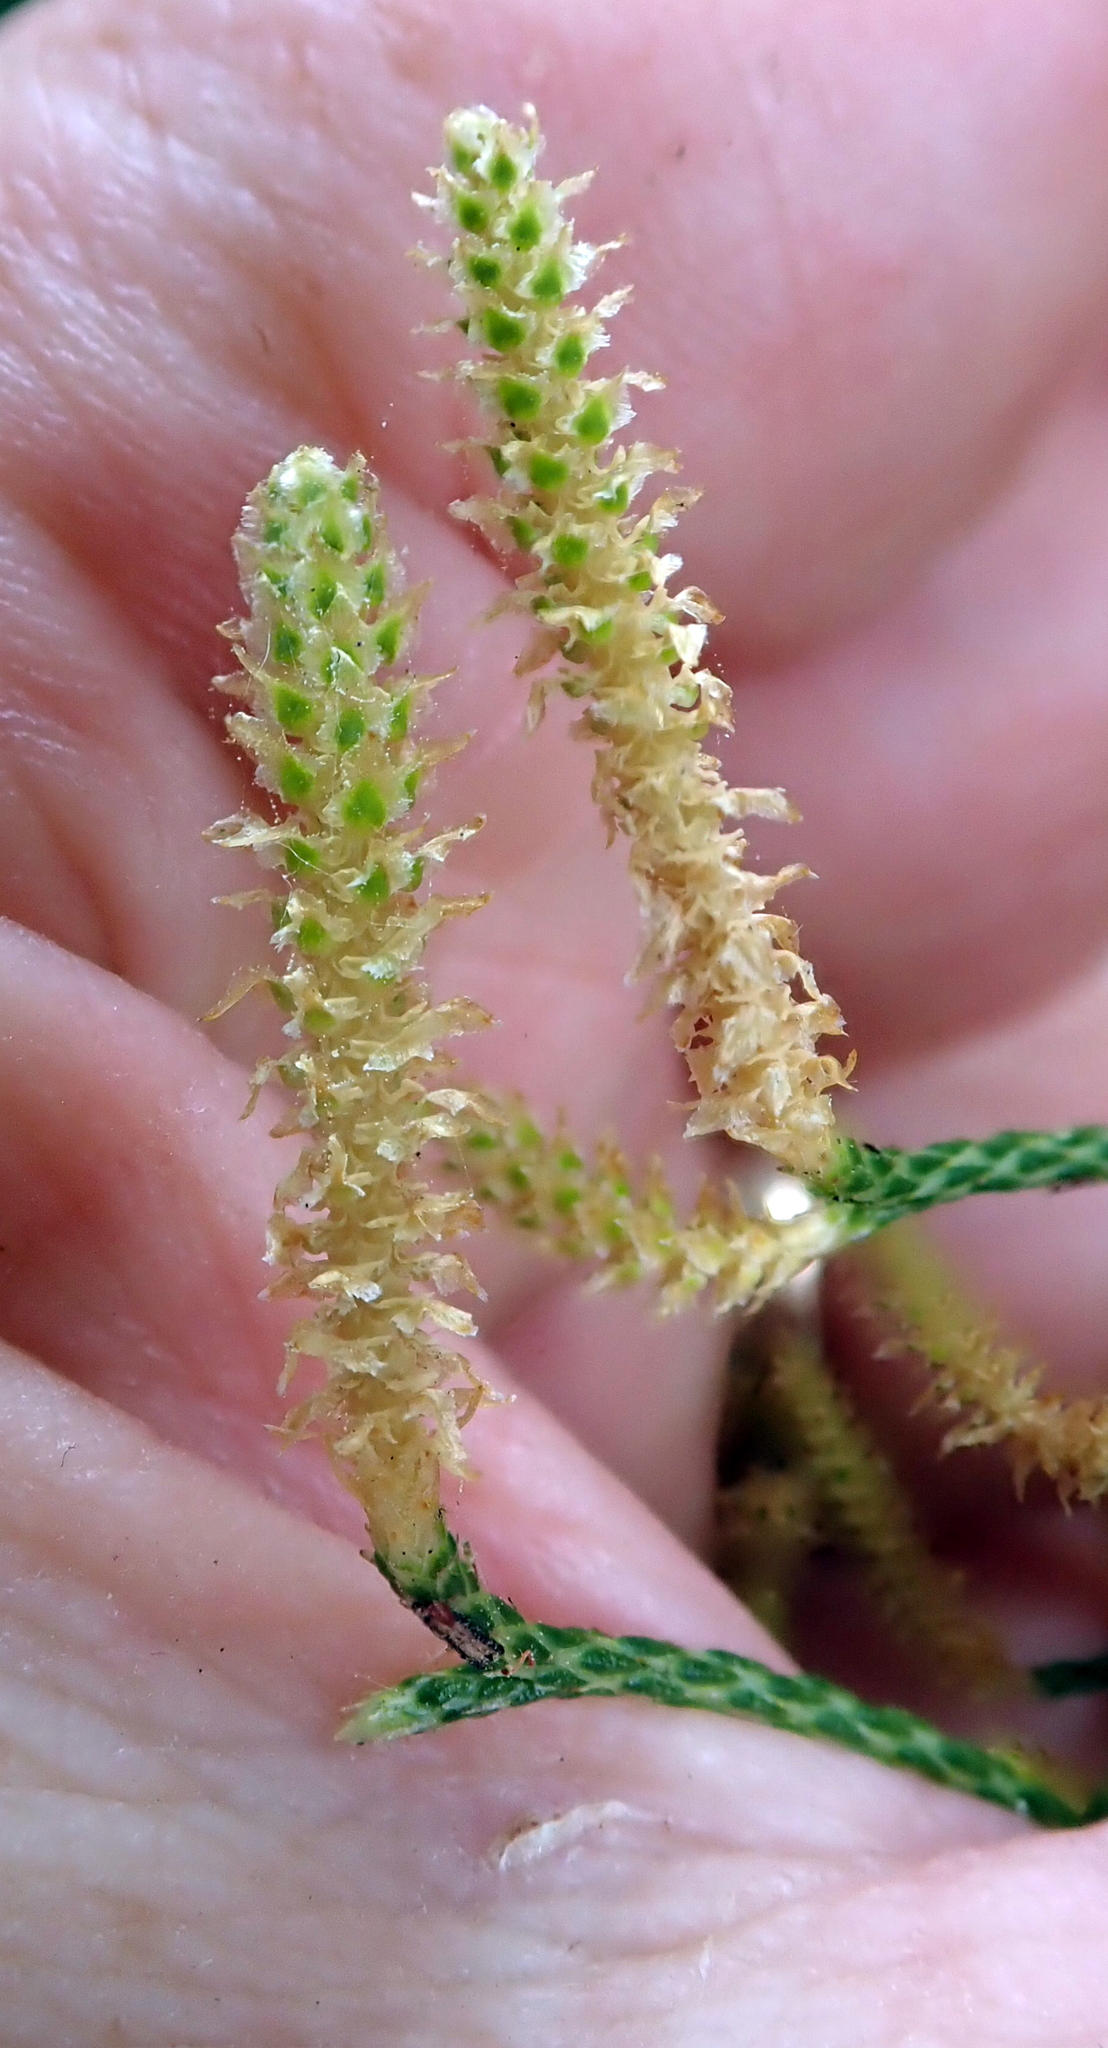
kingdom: Plantae
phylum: Tracheophyta
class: Lycopodiopsida
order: Lycopodiales
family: Lycopodiaceae
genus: Pseudolycopodium
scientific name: Pseudolycopodium densum
